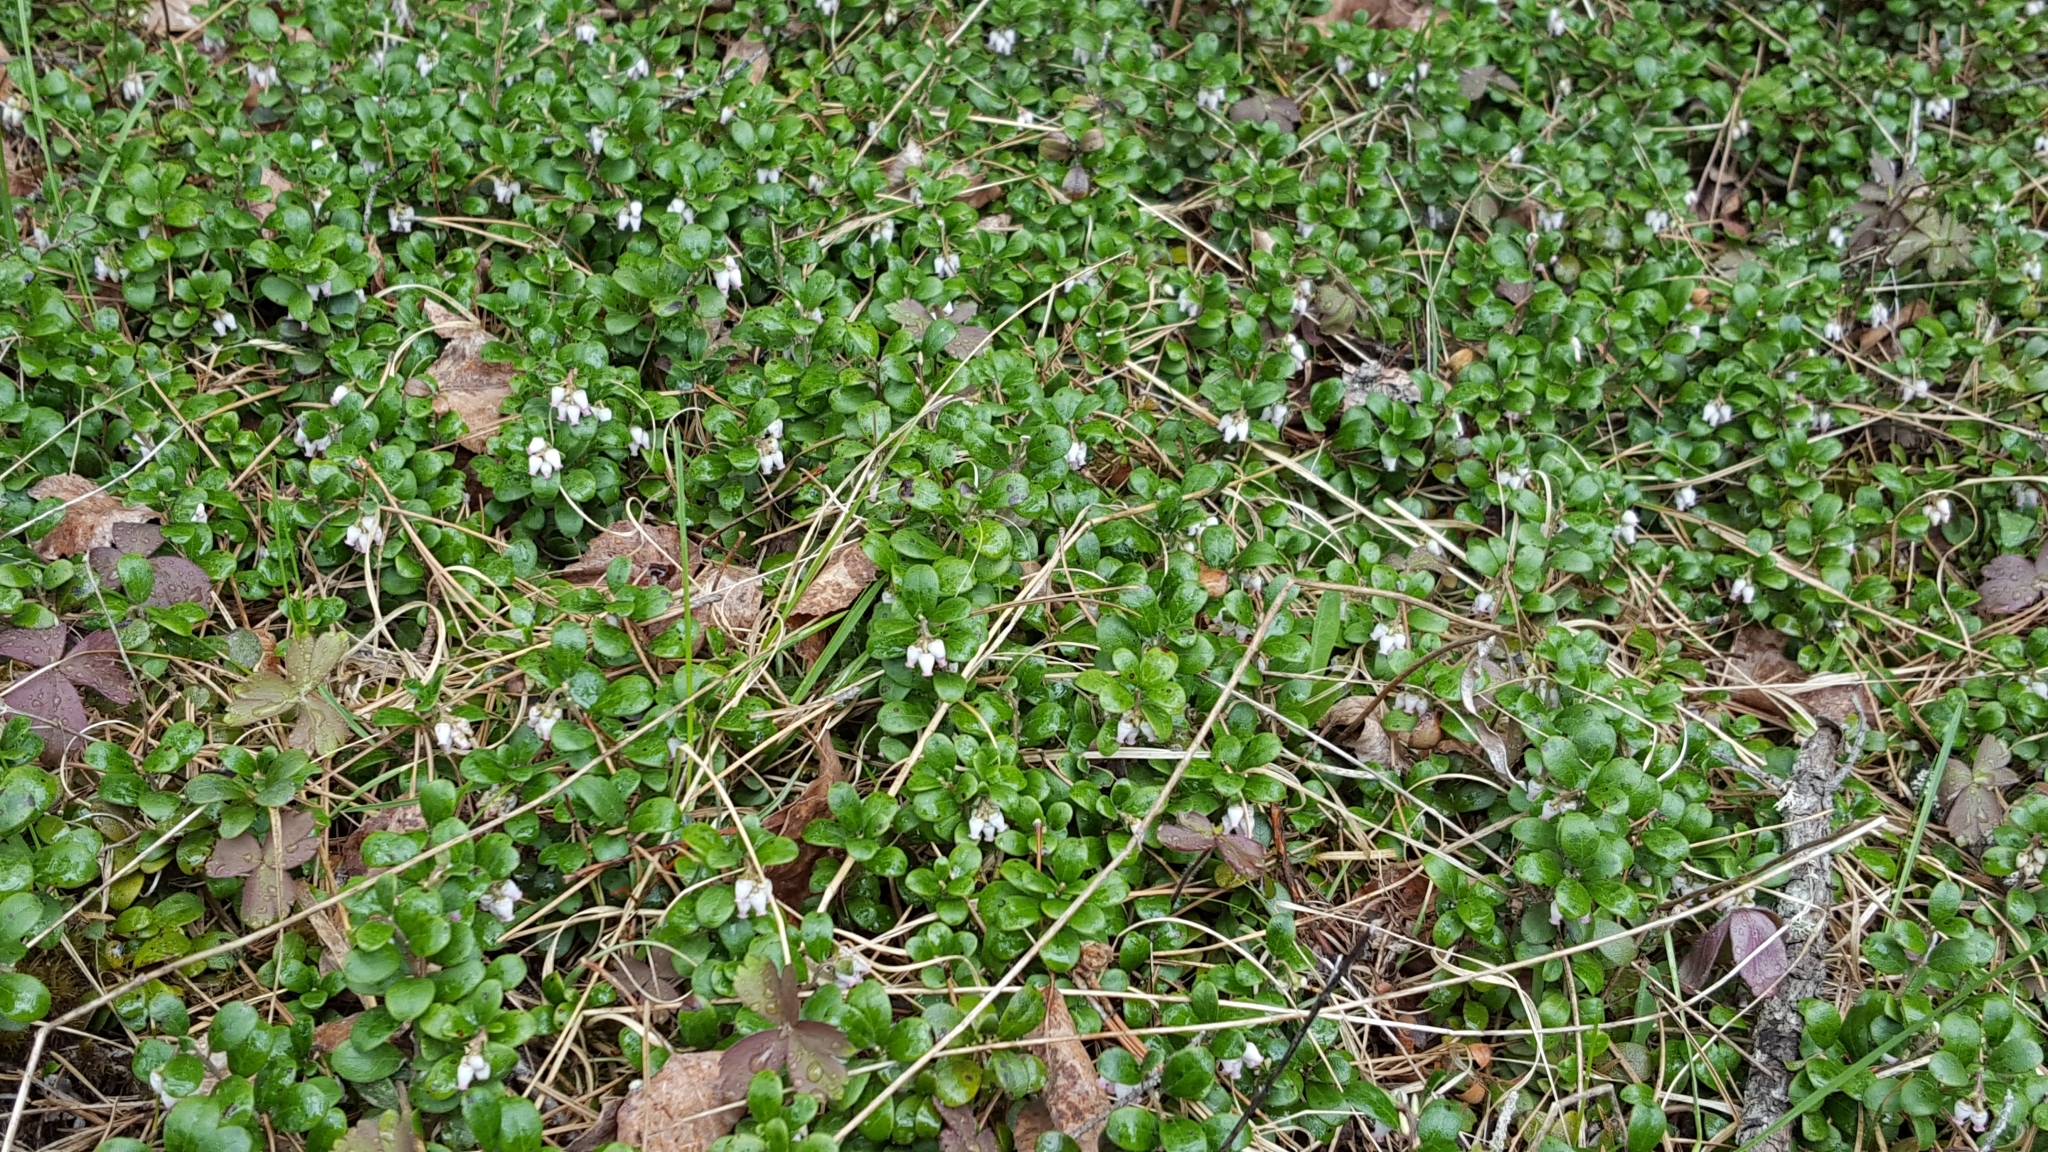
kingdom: Plantae
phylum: Tracheophyta
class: Magnoliopsida
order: Ericales
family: Ericaceae
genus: Arctostaphylos
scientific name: Arctostaphylos uva-ursi
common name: Bearberry
